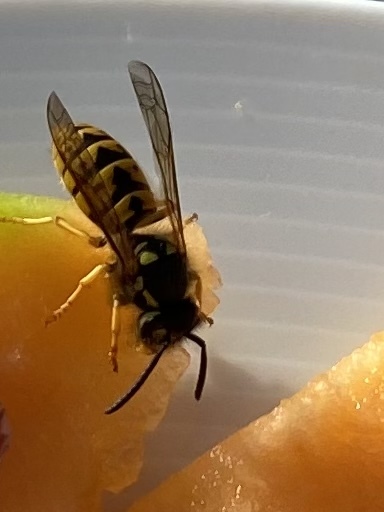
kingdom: Animalia
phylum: Arthropoda
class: Insecta
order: Hymenoptera
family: Vespidae
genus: Vespula
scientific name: Vespula germanica
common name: German wasp
